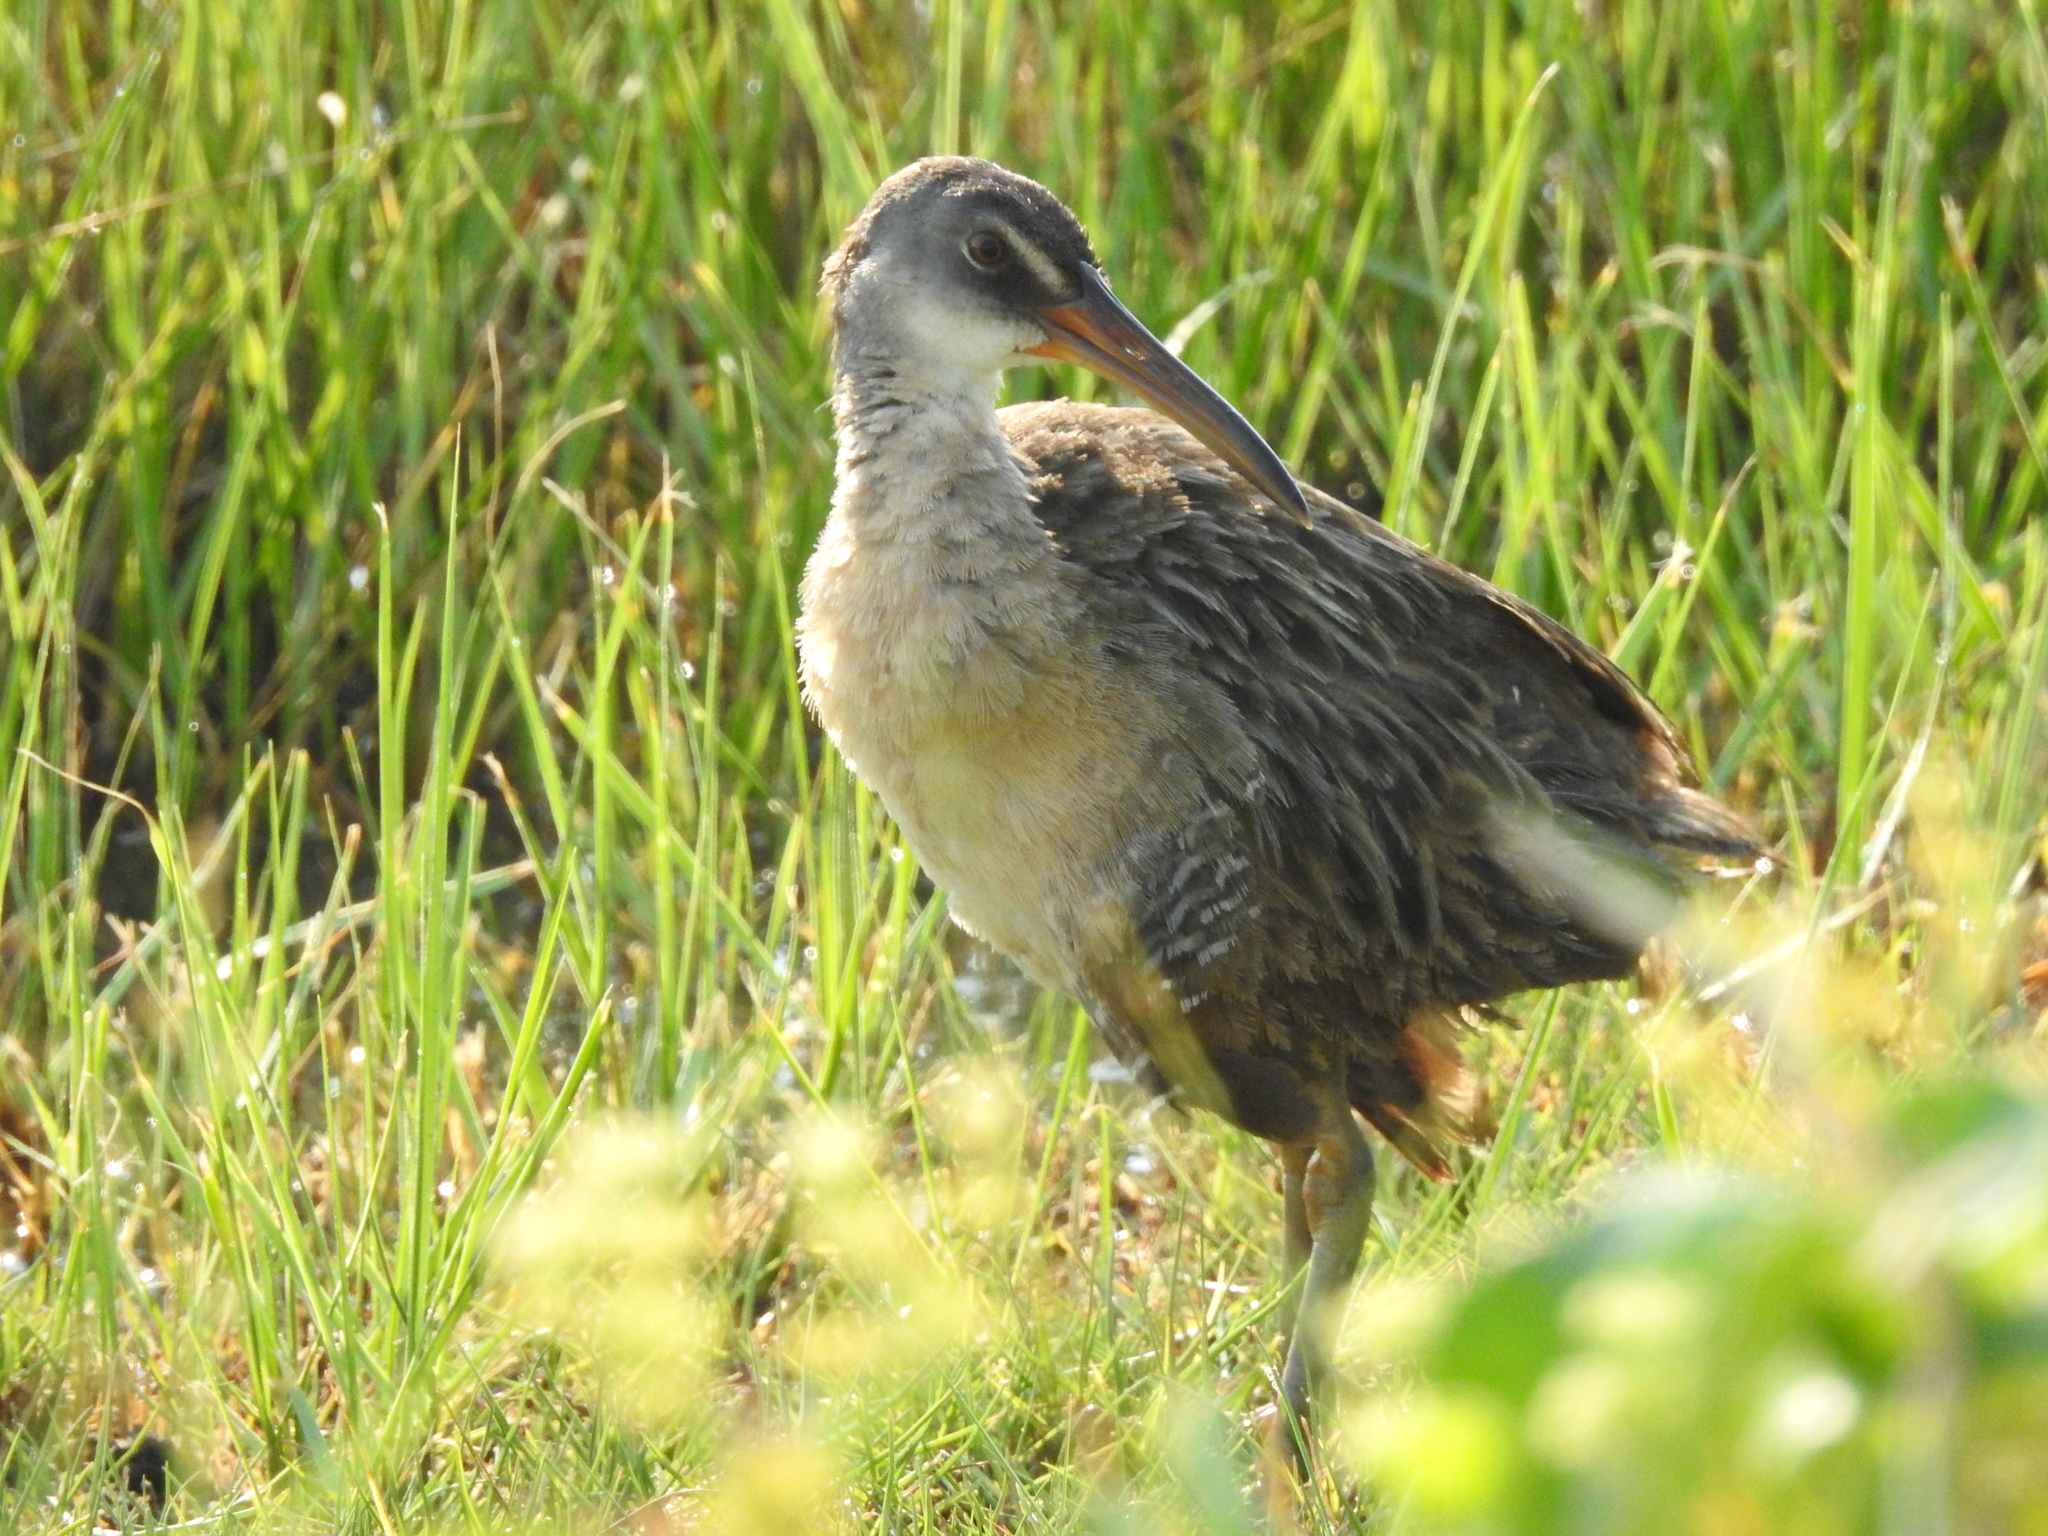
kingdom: Animalia
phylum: Chordata
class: Aves
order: Gruiformes
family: Rallidae
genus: Rallus
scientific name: Rallus crepitans
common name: Clapper rail
